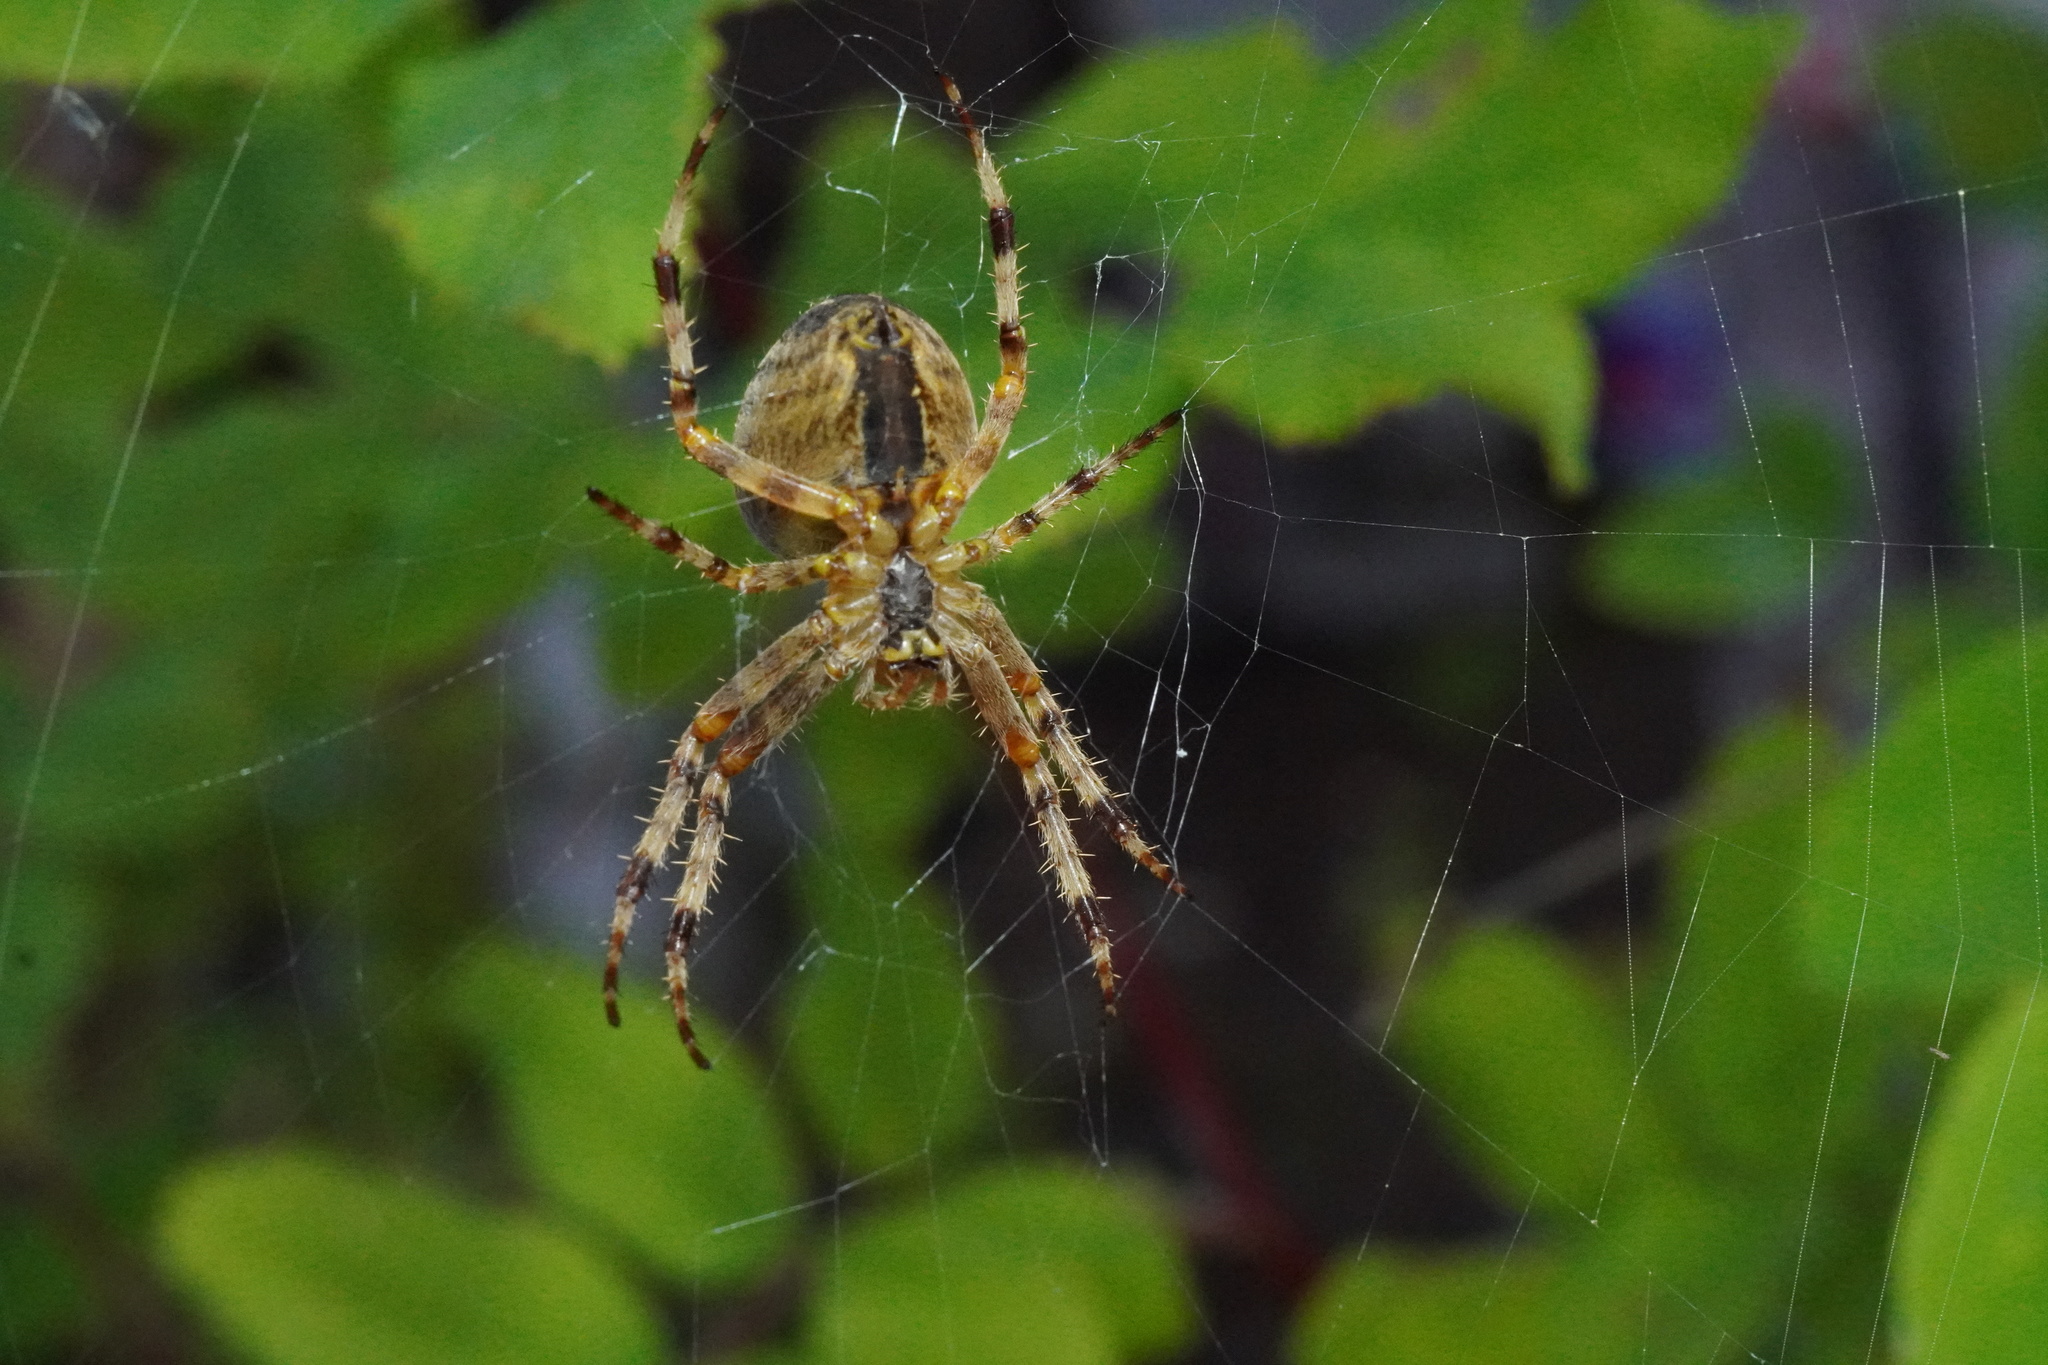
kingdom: Animalia
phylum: Arthropoda
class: Arachnida
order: Araneae
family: Araneidae
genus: Araneus
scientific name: Araneus diadematus
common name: Cross orbweaver
